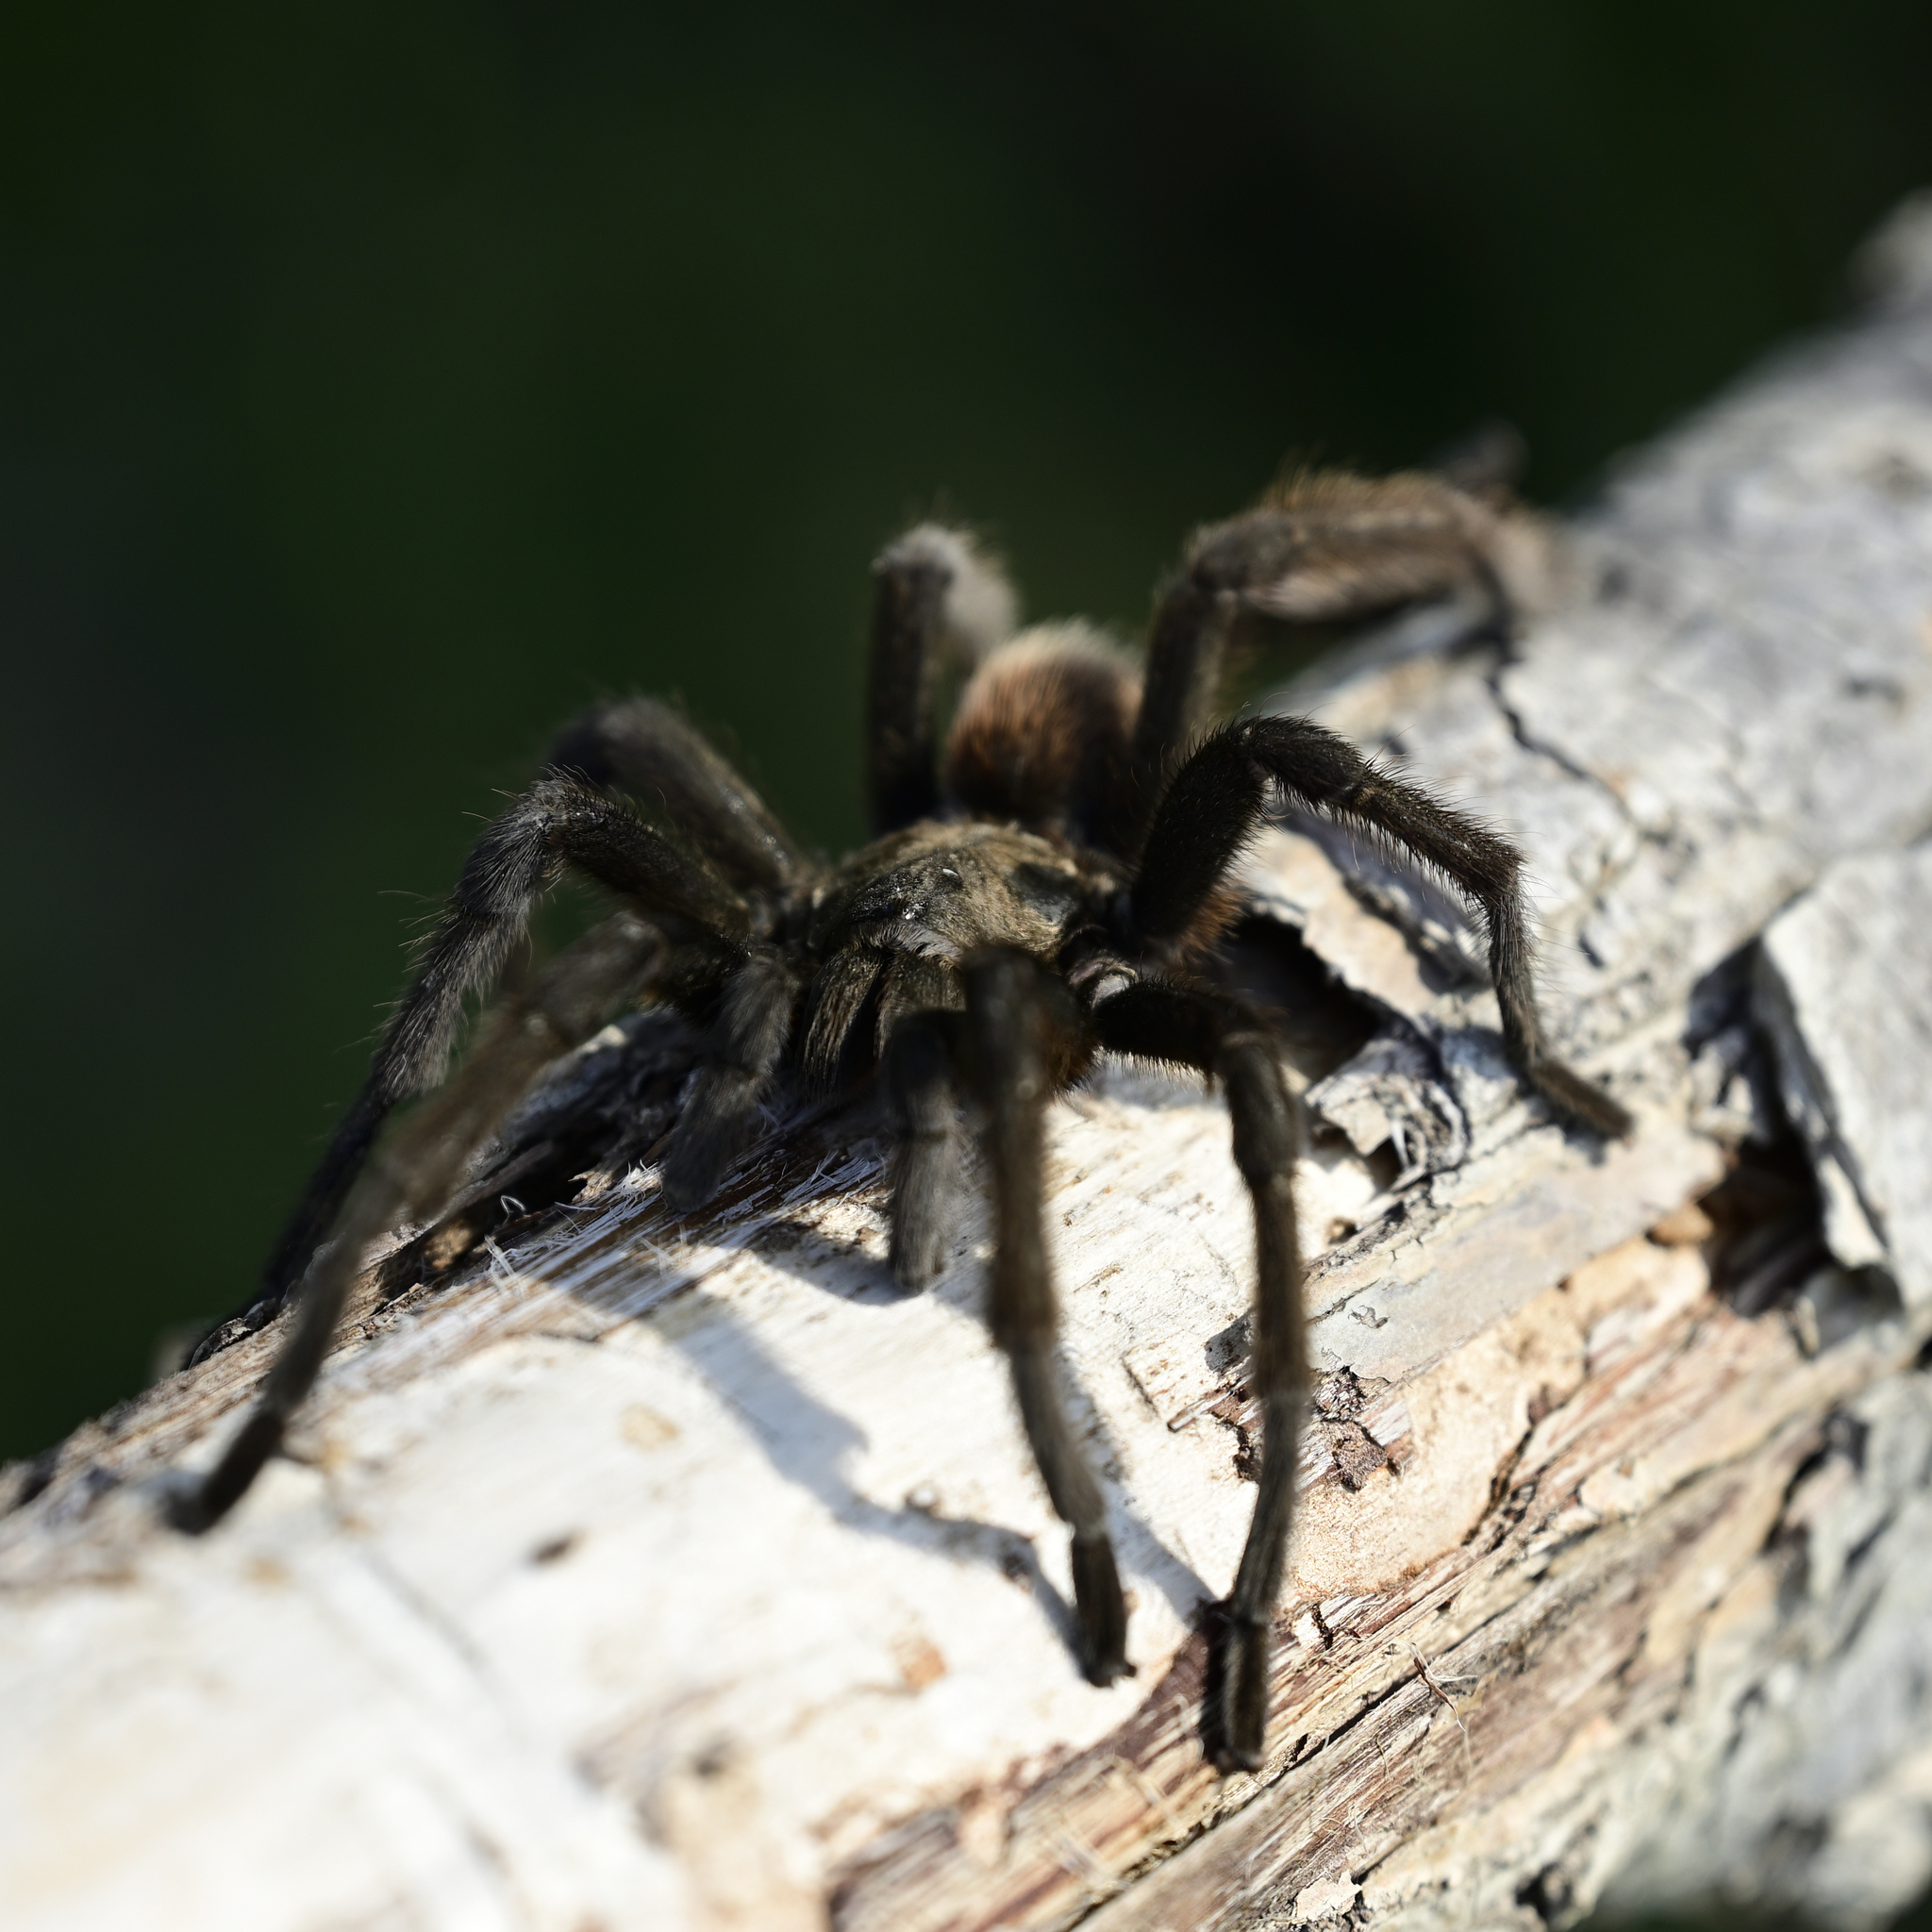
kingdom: Animalia
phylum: Arthropoda
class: Arachnida
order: Araneae
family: Theraphosidae
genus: Aphonopelma
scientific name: Aphonopelma anax
